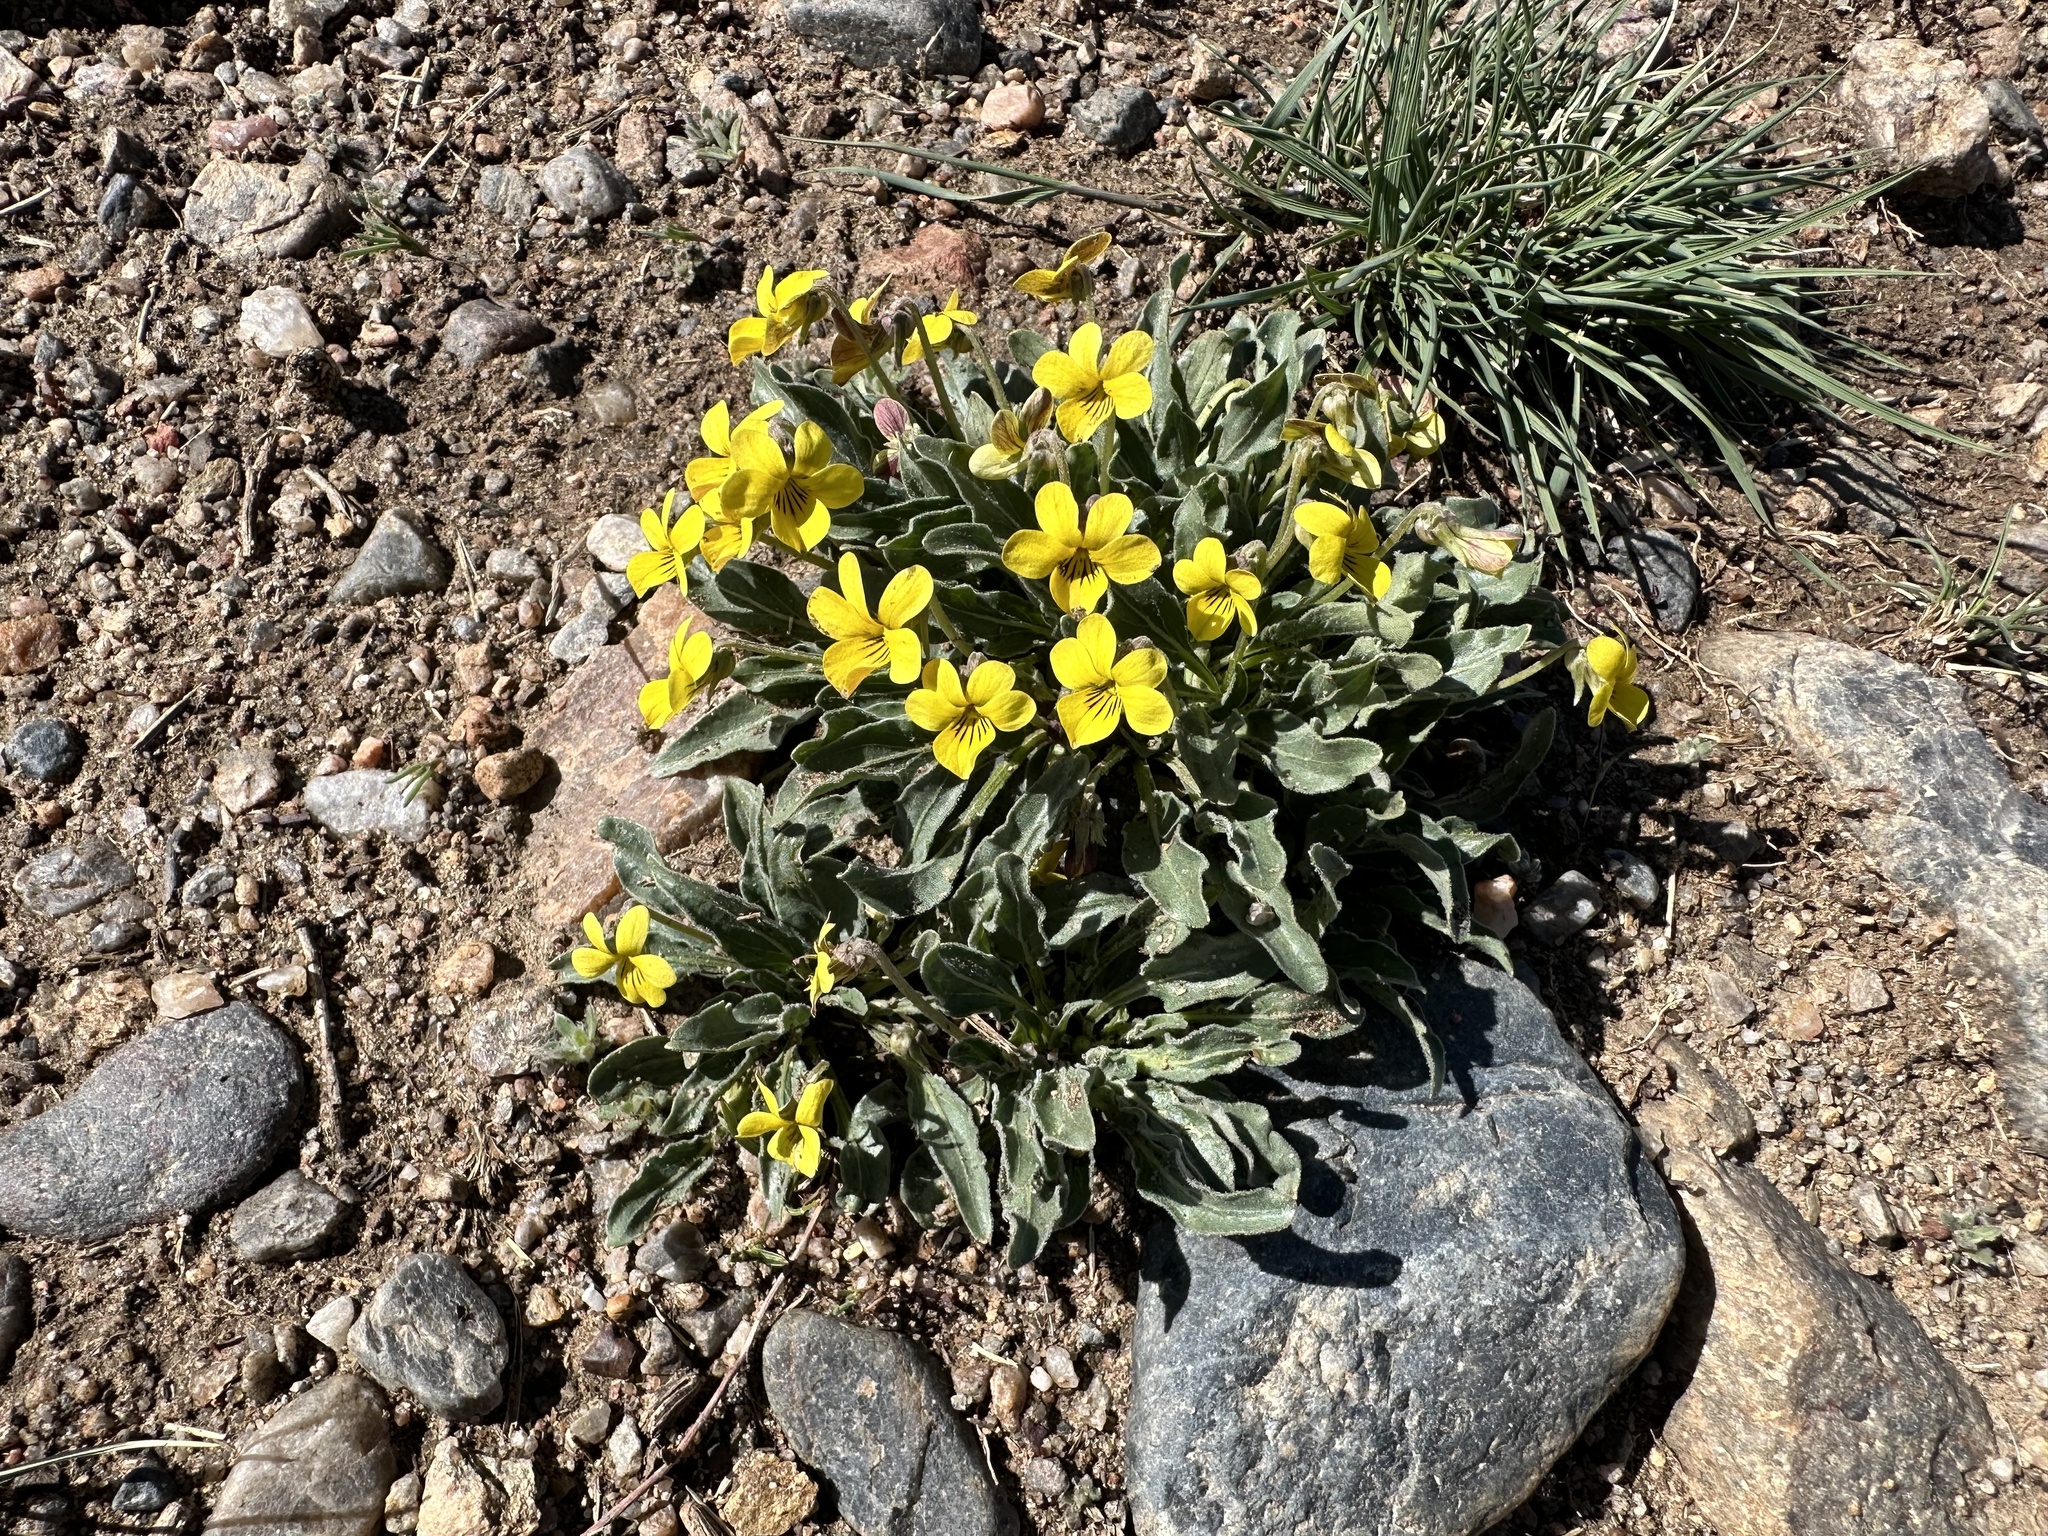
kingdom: Plantae
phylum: Tracheophyta
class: Magnoliopsida
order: Malpighiales
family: Violaceae
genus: Viola
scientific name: Viola nuttallii
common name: Yellow prairie violet
